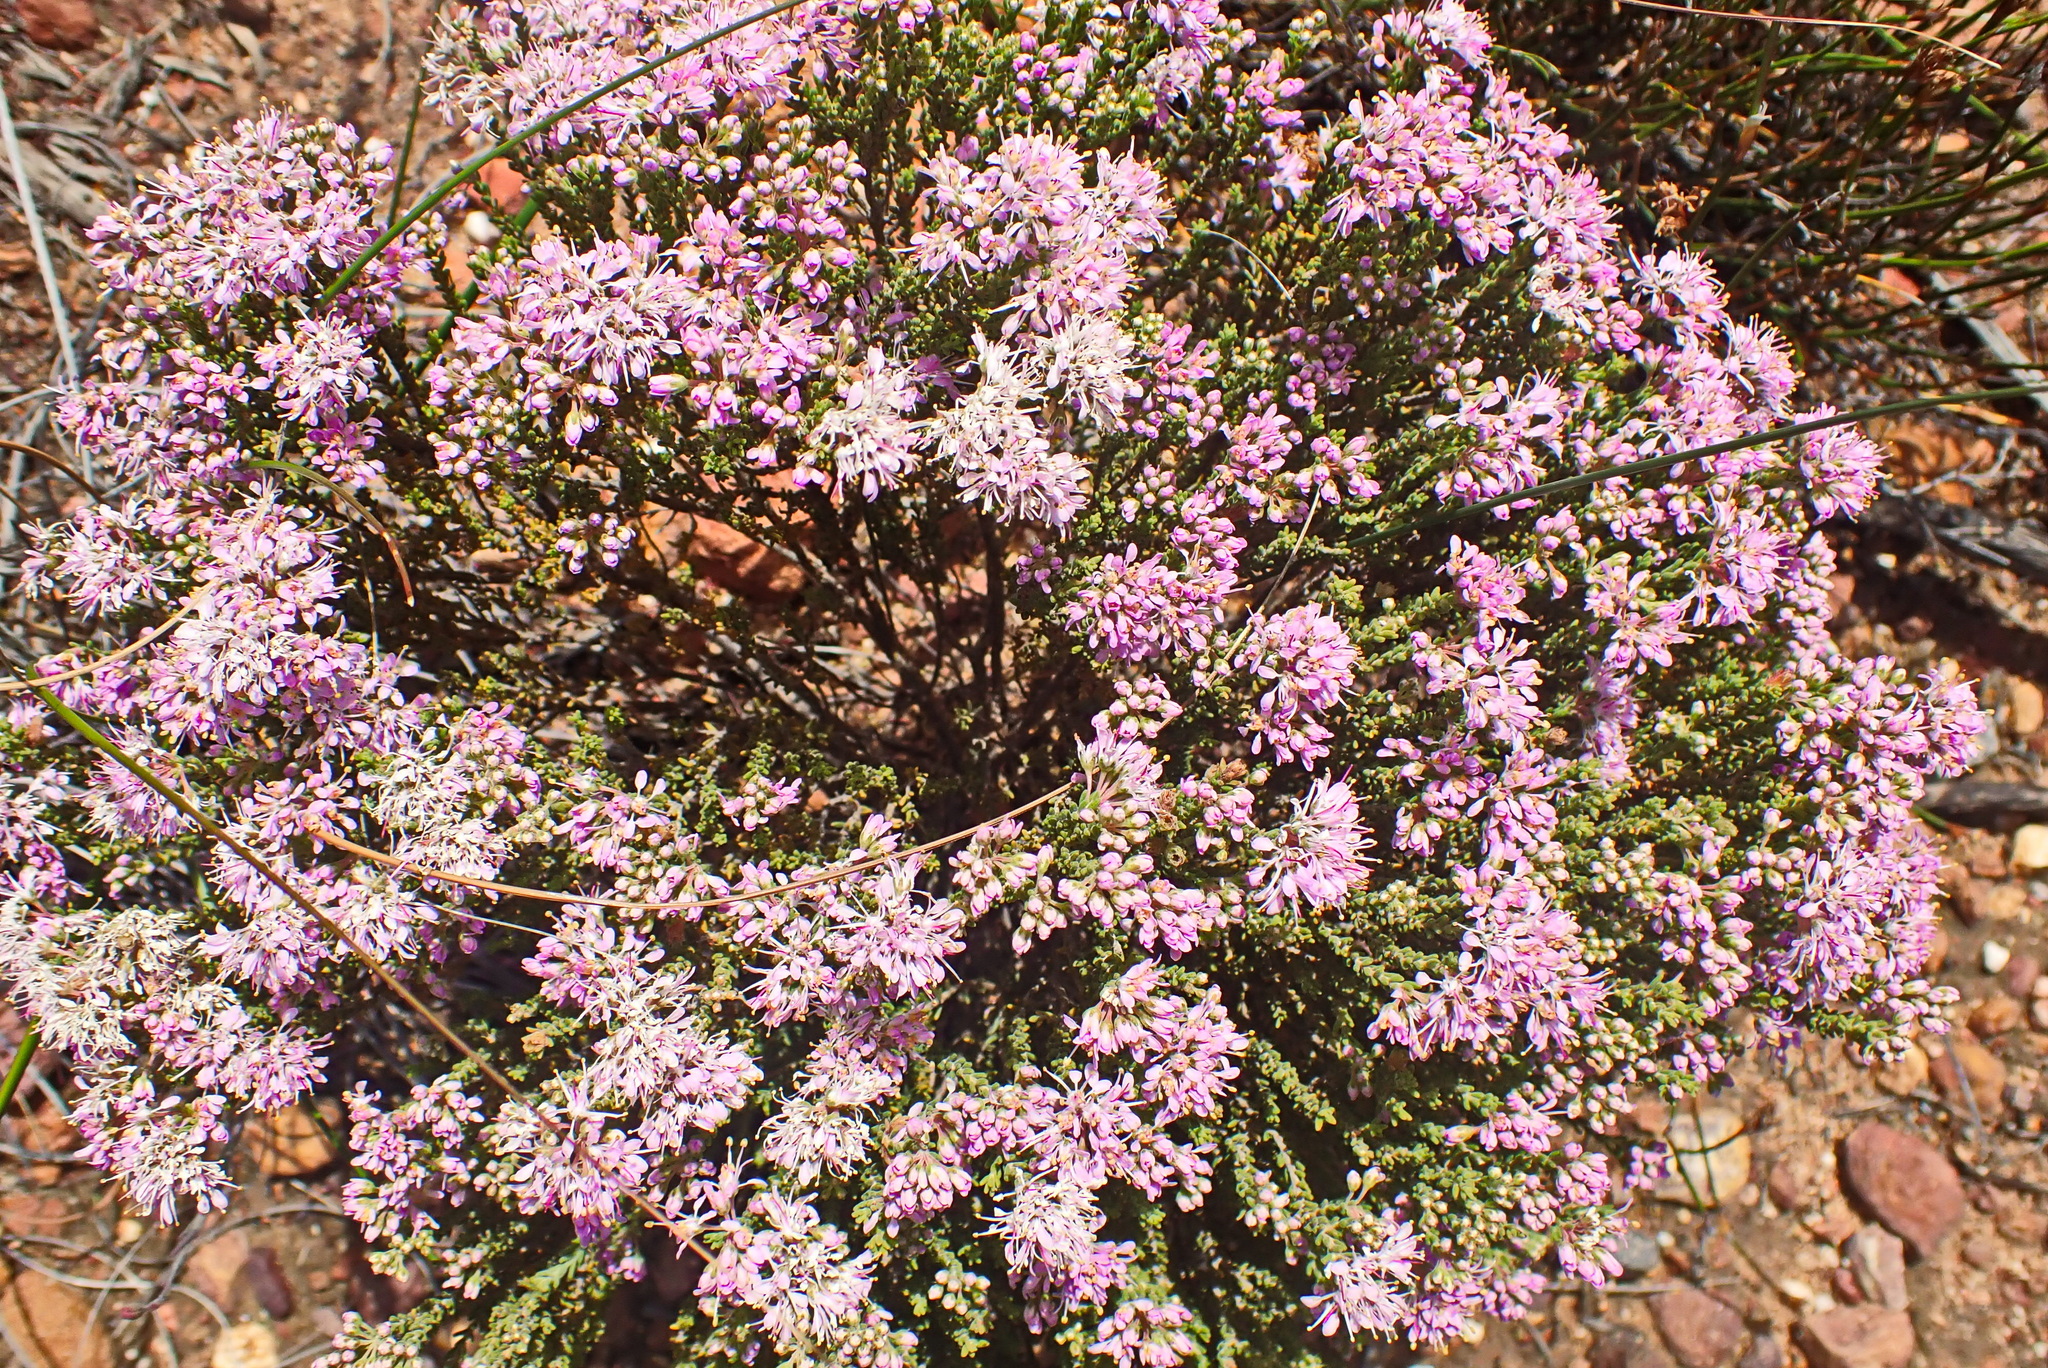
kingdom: Plantae
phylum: Tracheophyta
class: Magnoliopsida
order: Sapindales
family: Rutaceae
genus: Agathosma
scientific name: Agathosma capensis
